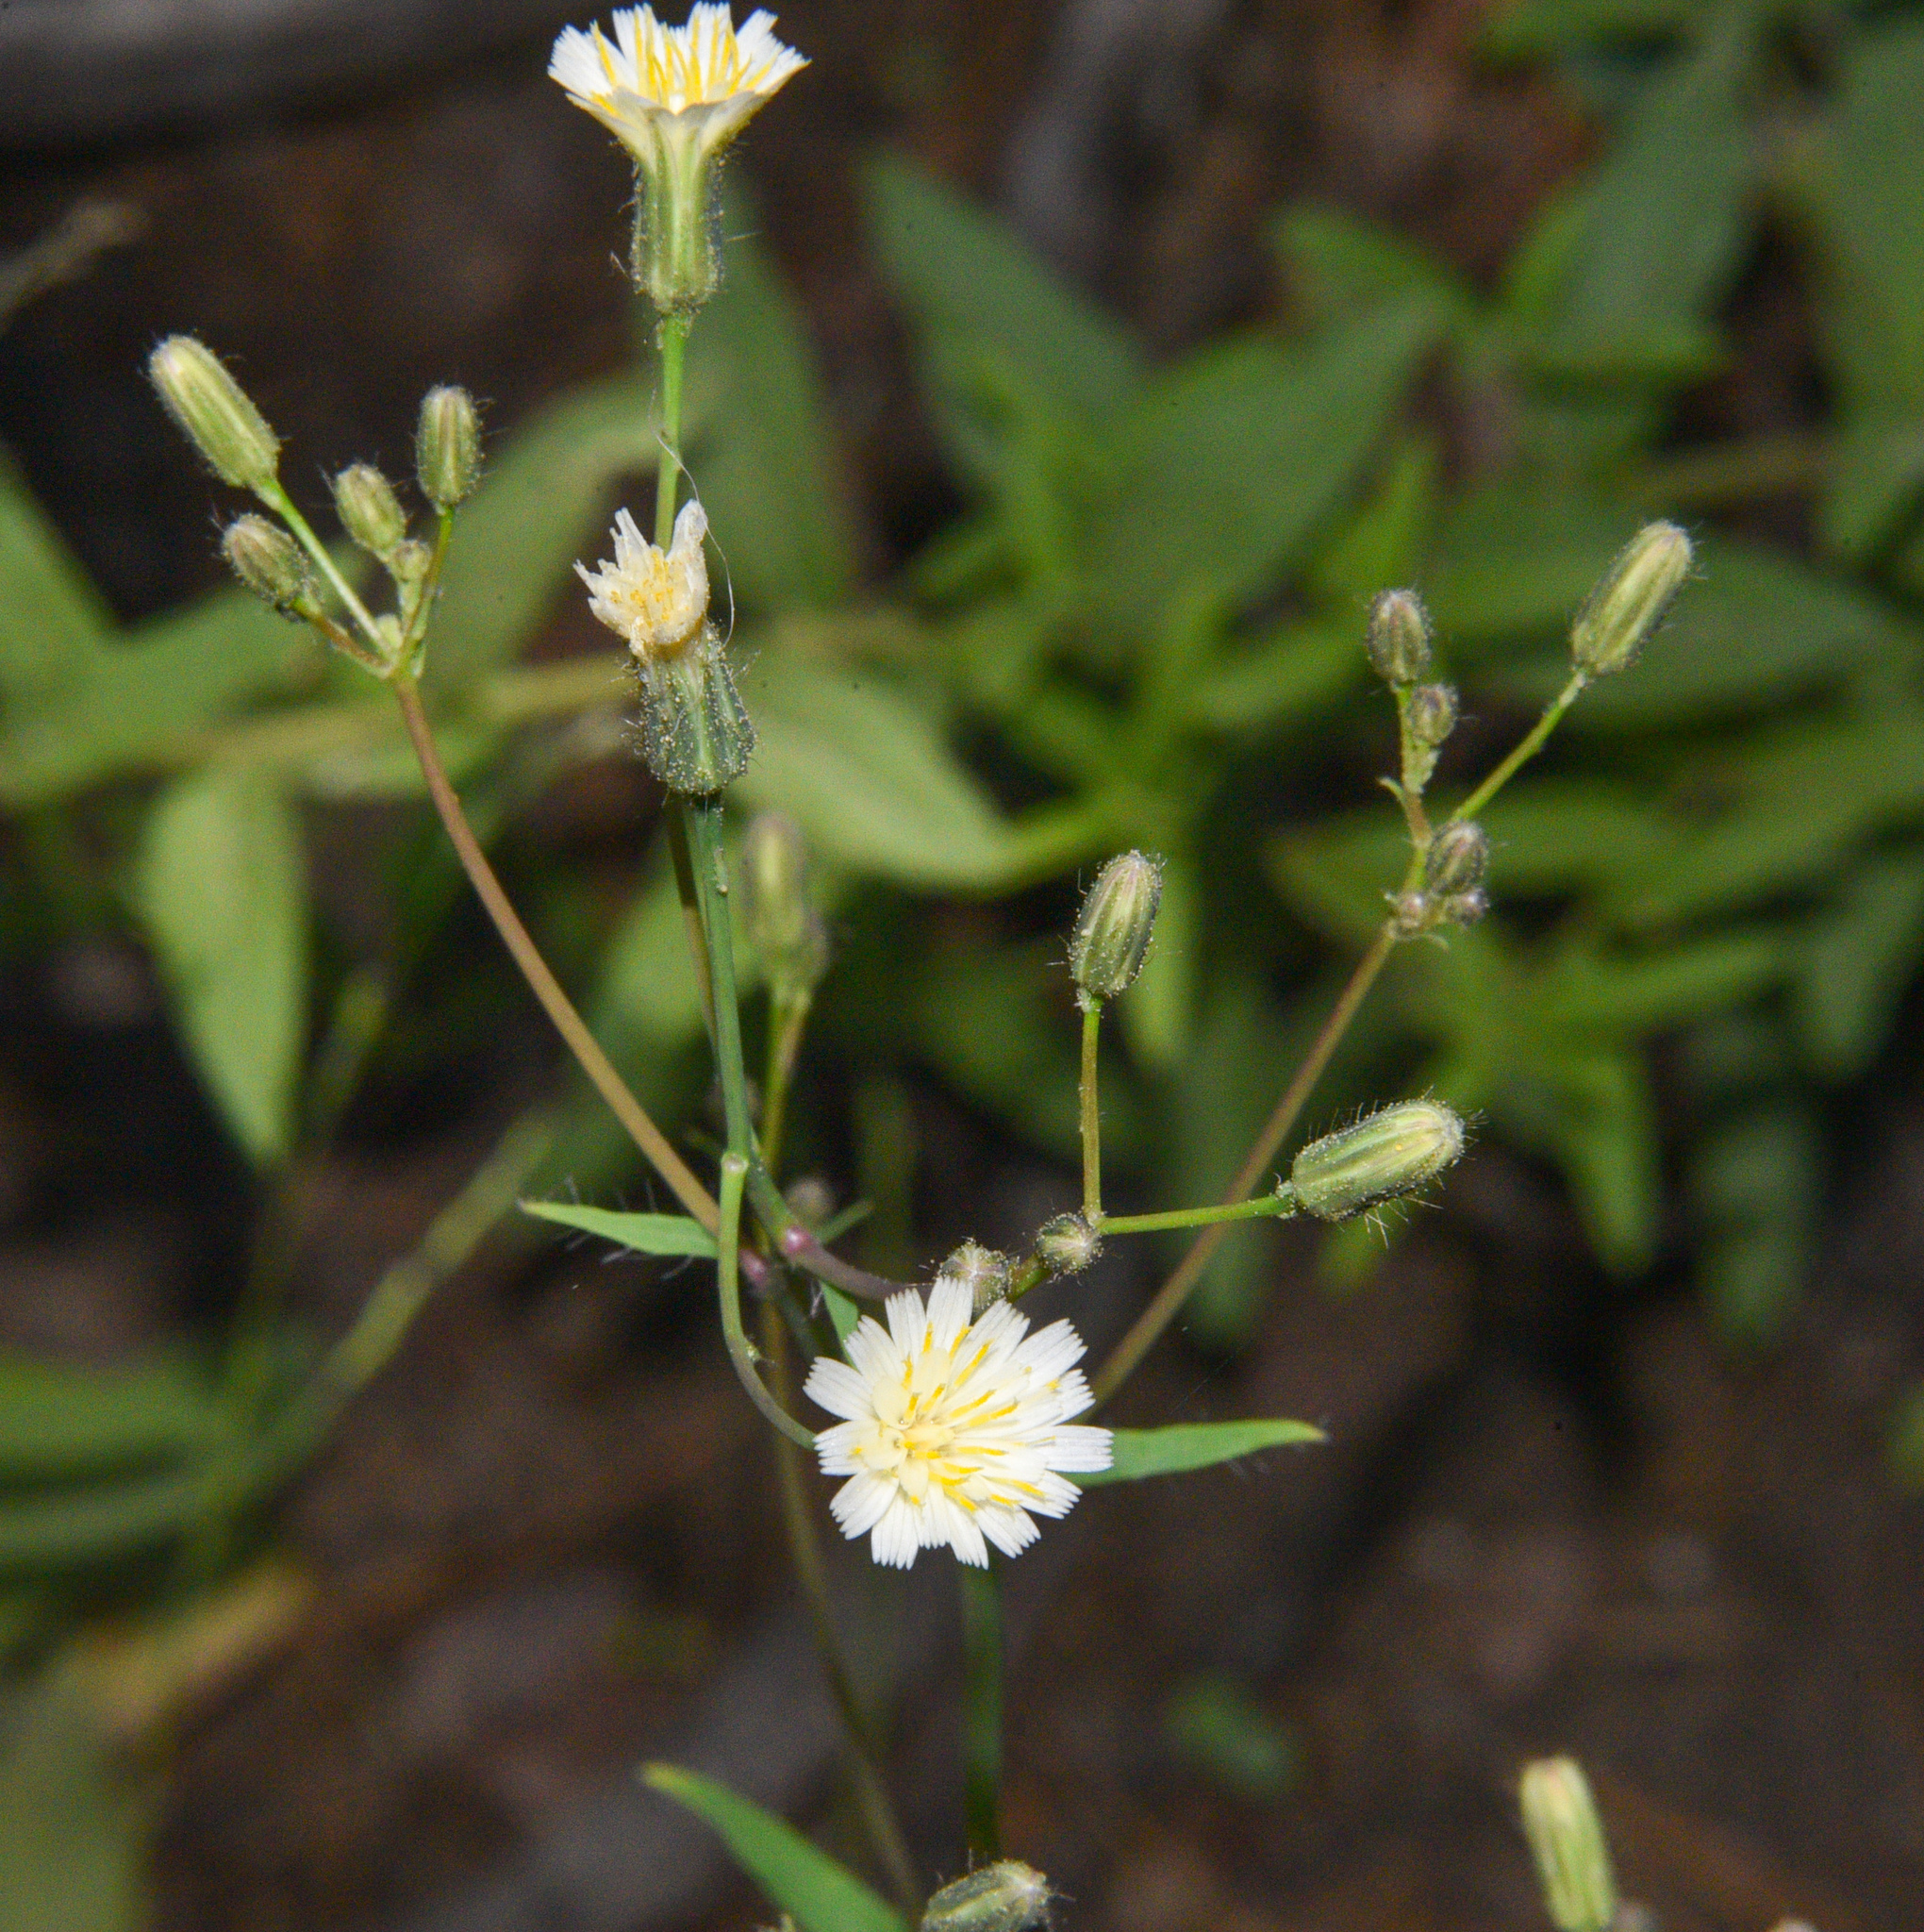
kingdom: Plantae
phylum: Tracheophyta
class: Magnoliopsida
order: Asterales
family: Asteraceae
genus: Hieracium
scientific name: Hieracium albiflorum
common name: White hawkweed
